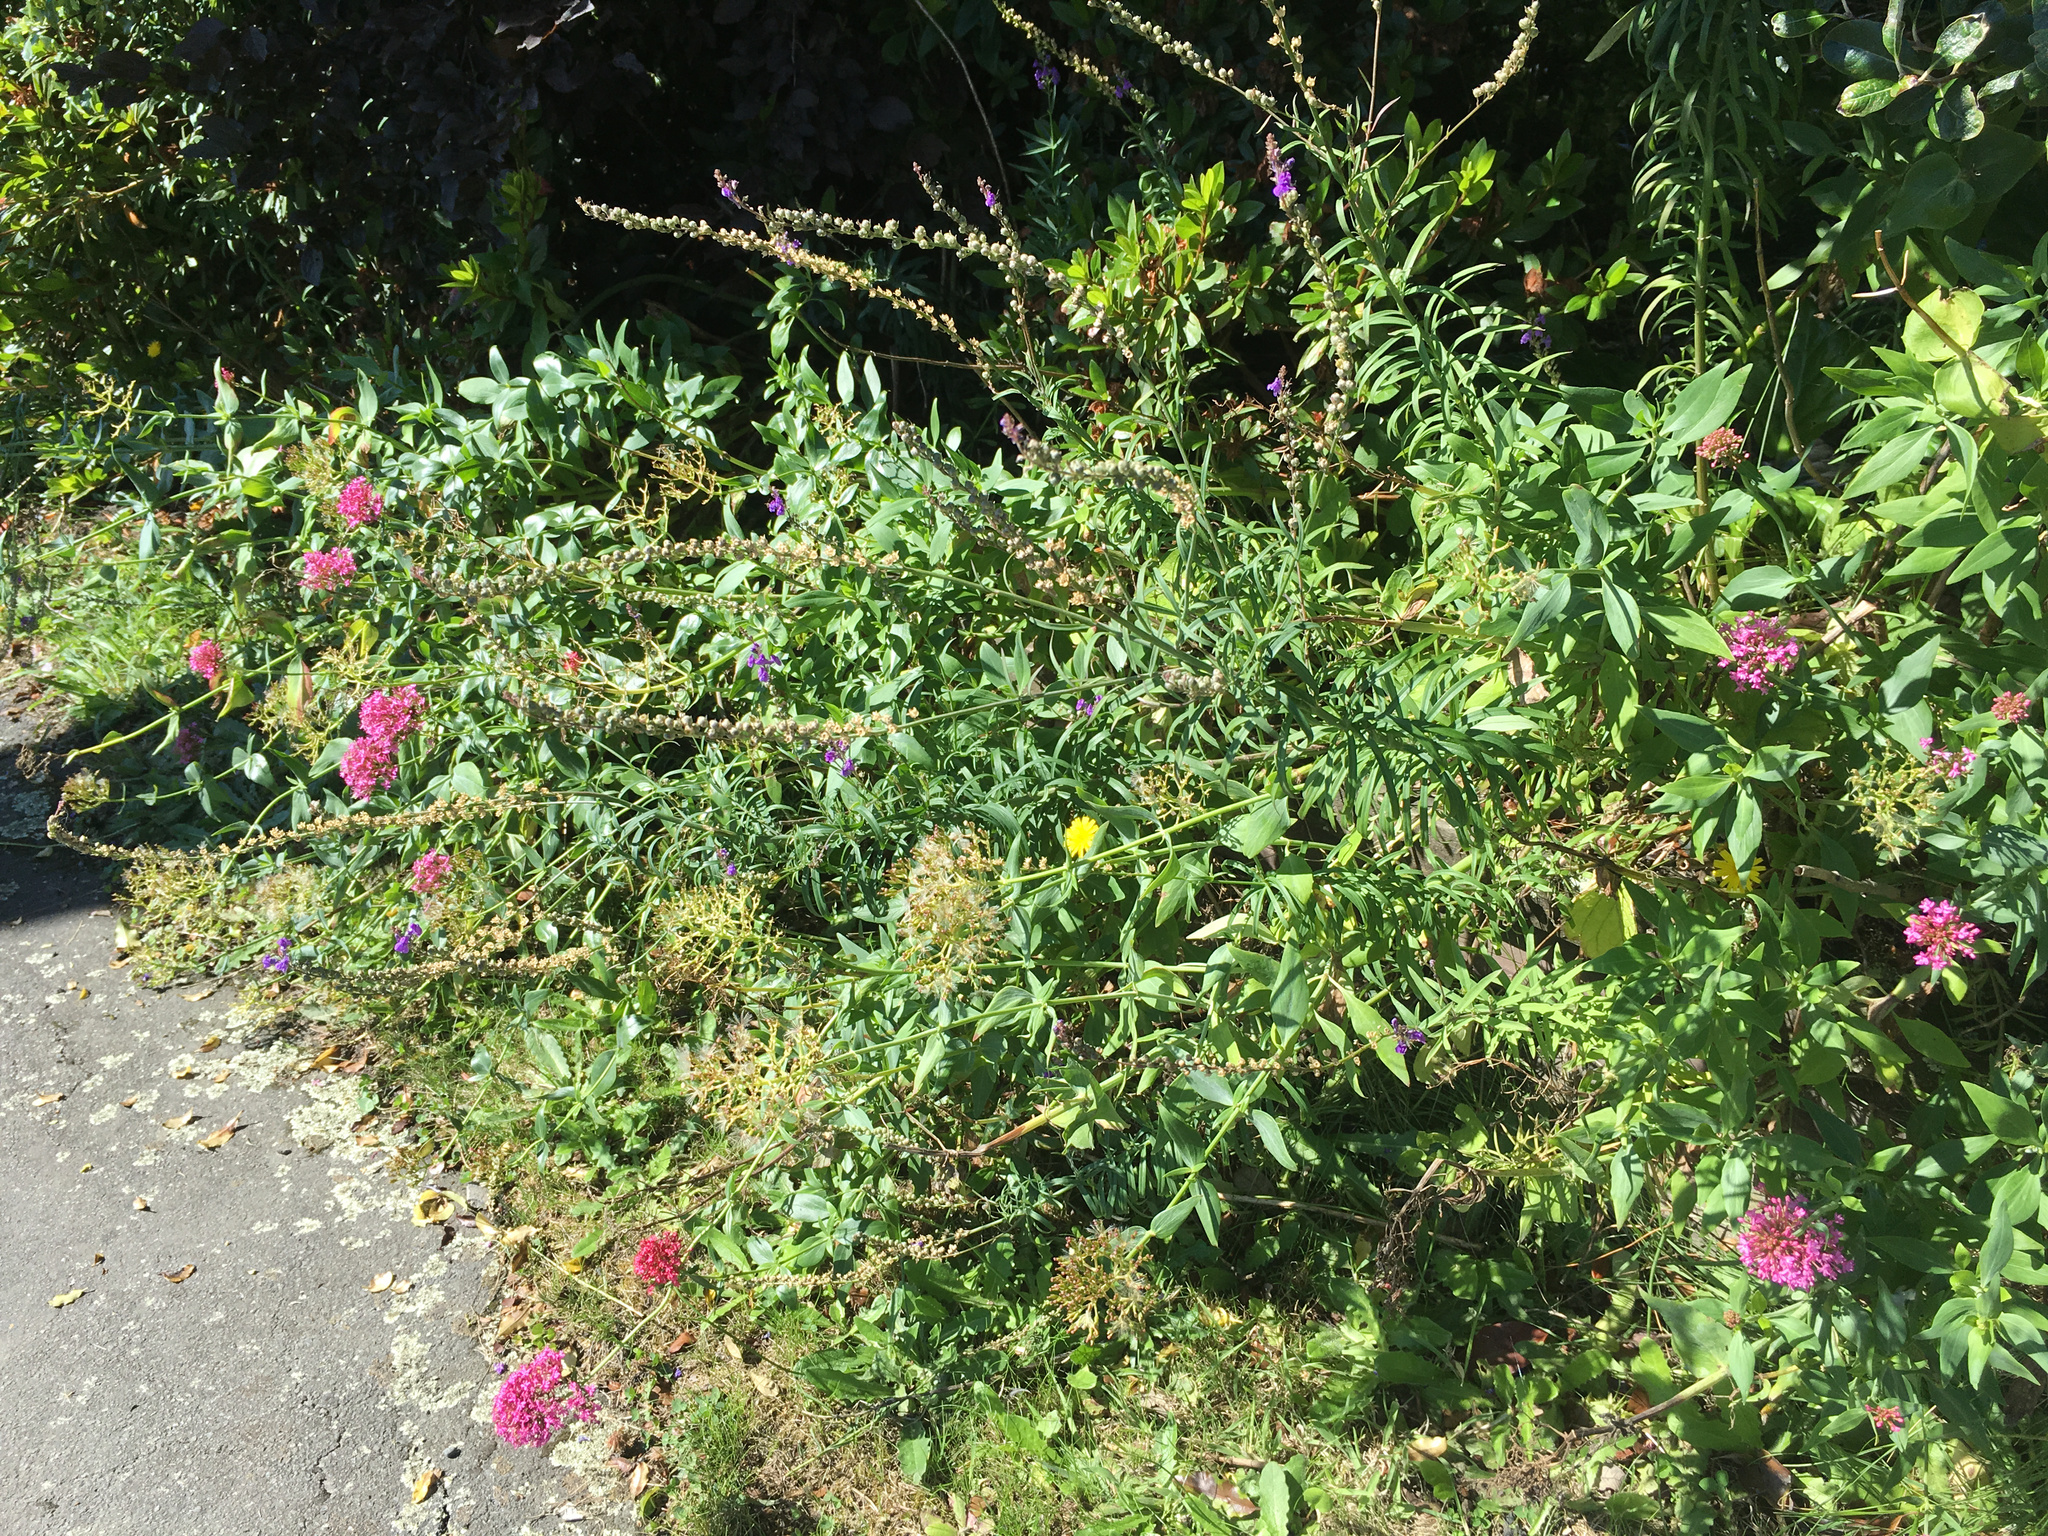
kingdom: Plantae
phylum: Tracheophyta
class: Magnoliopsida
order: Dipsacales
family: Caprifoliaceae
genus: Centranthus
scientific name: Centranthus ruber
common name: Red valerian
